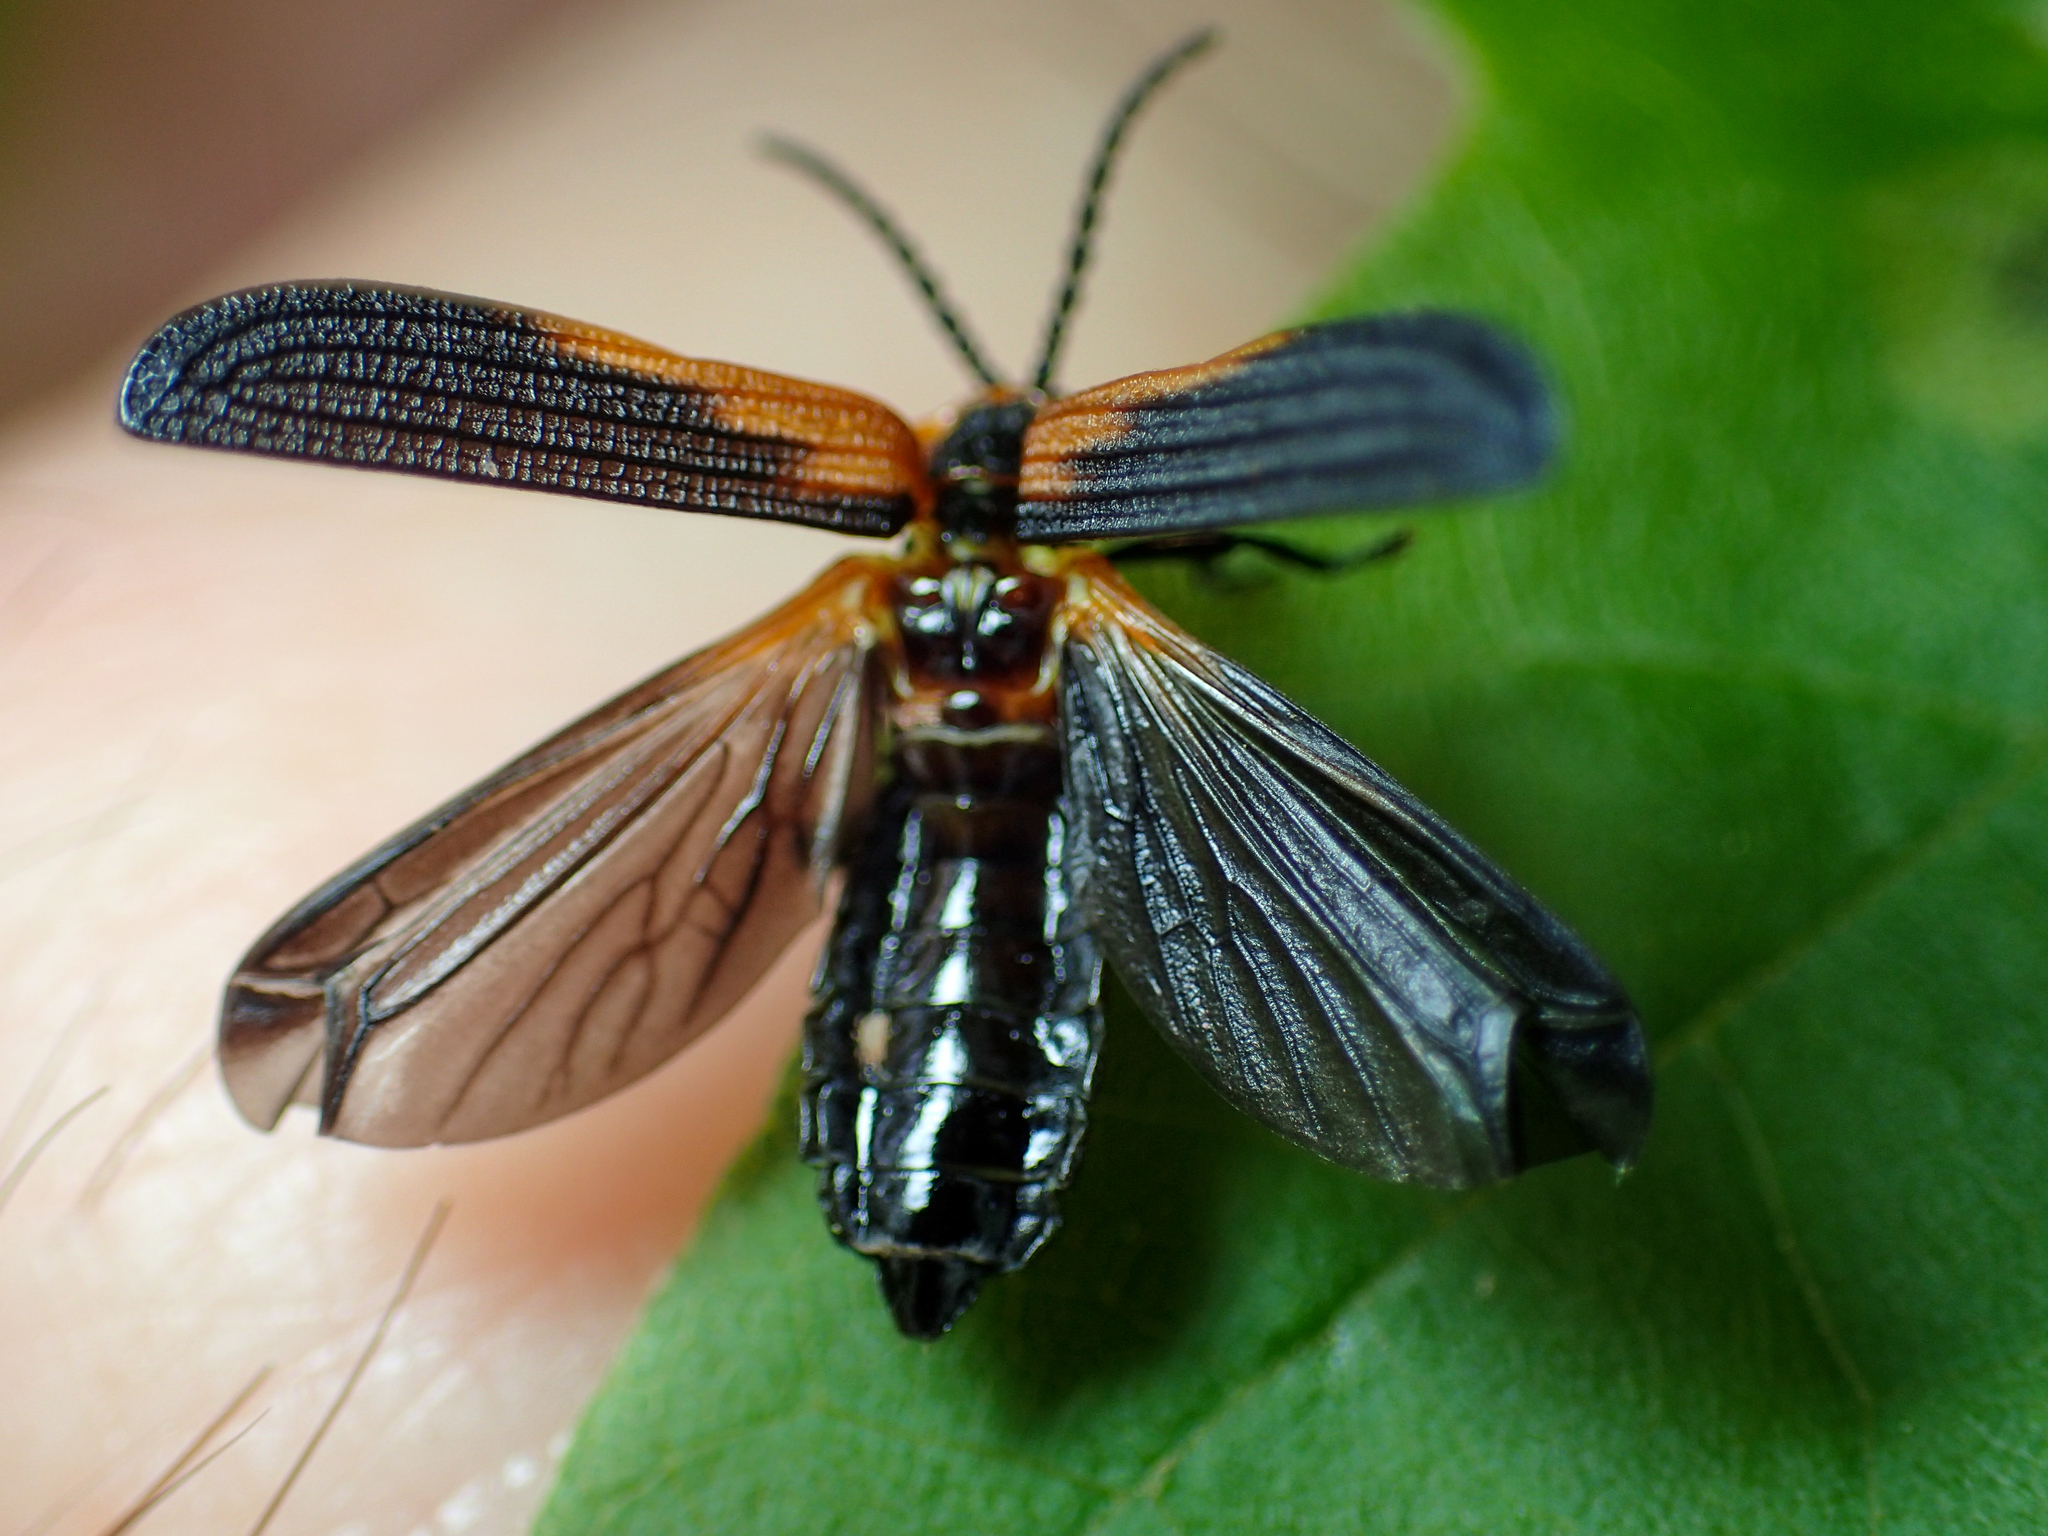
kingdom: Animalia
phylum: Arthropoda
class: Insecta
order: Coleoptera
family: Lycidae
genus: Eros
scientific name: Eros humeralis
